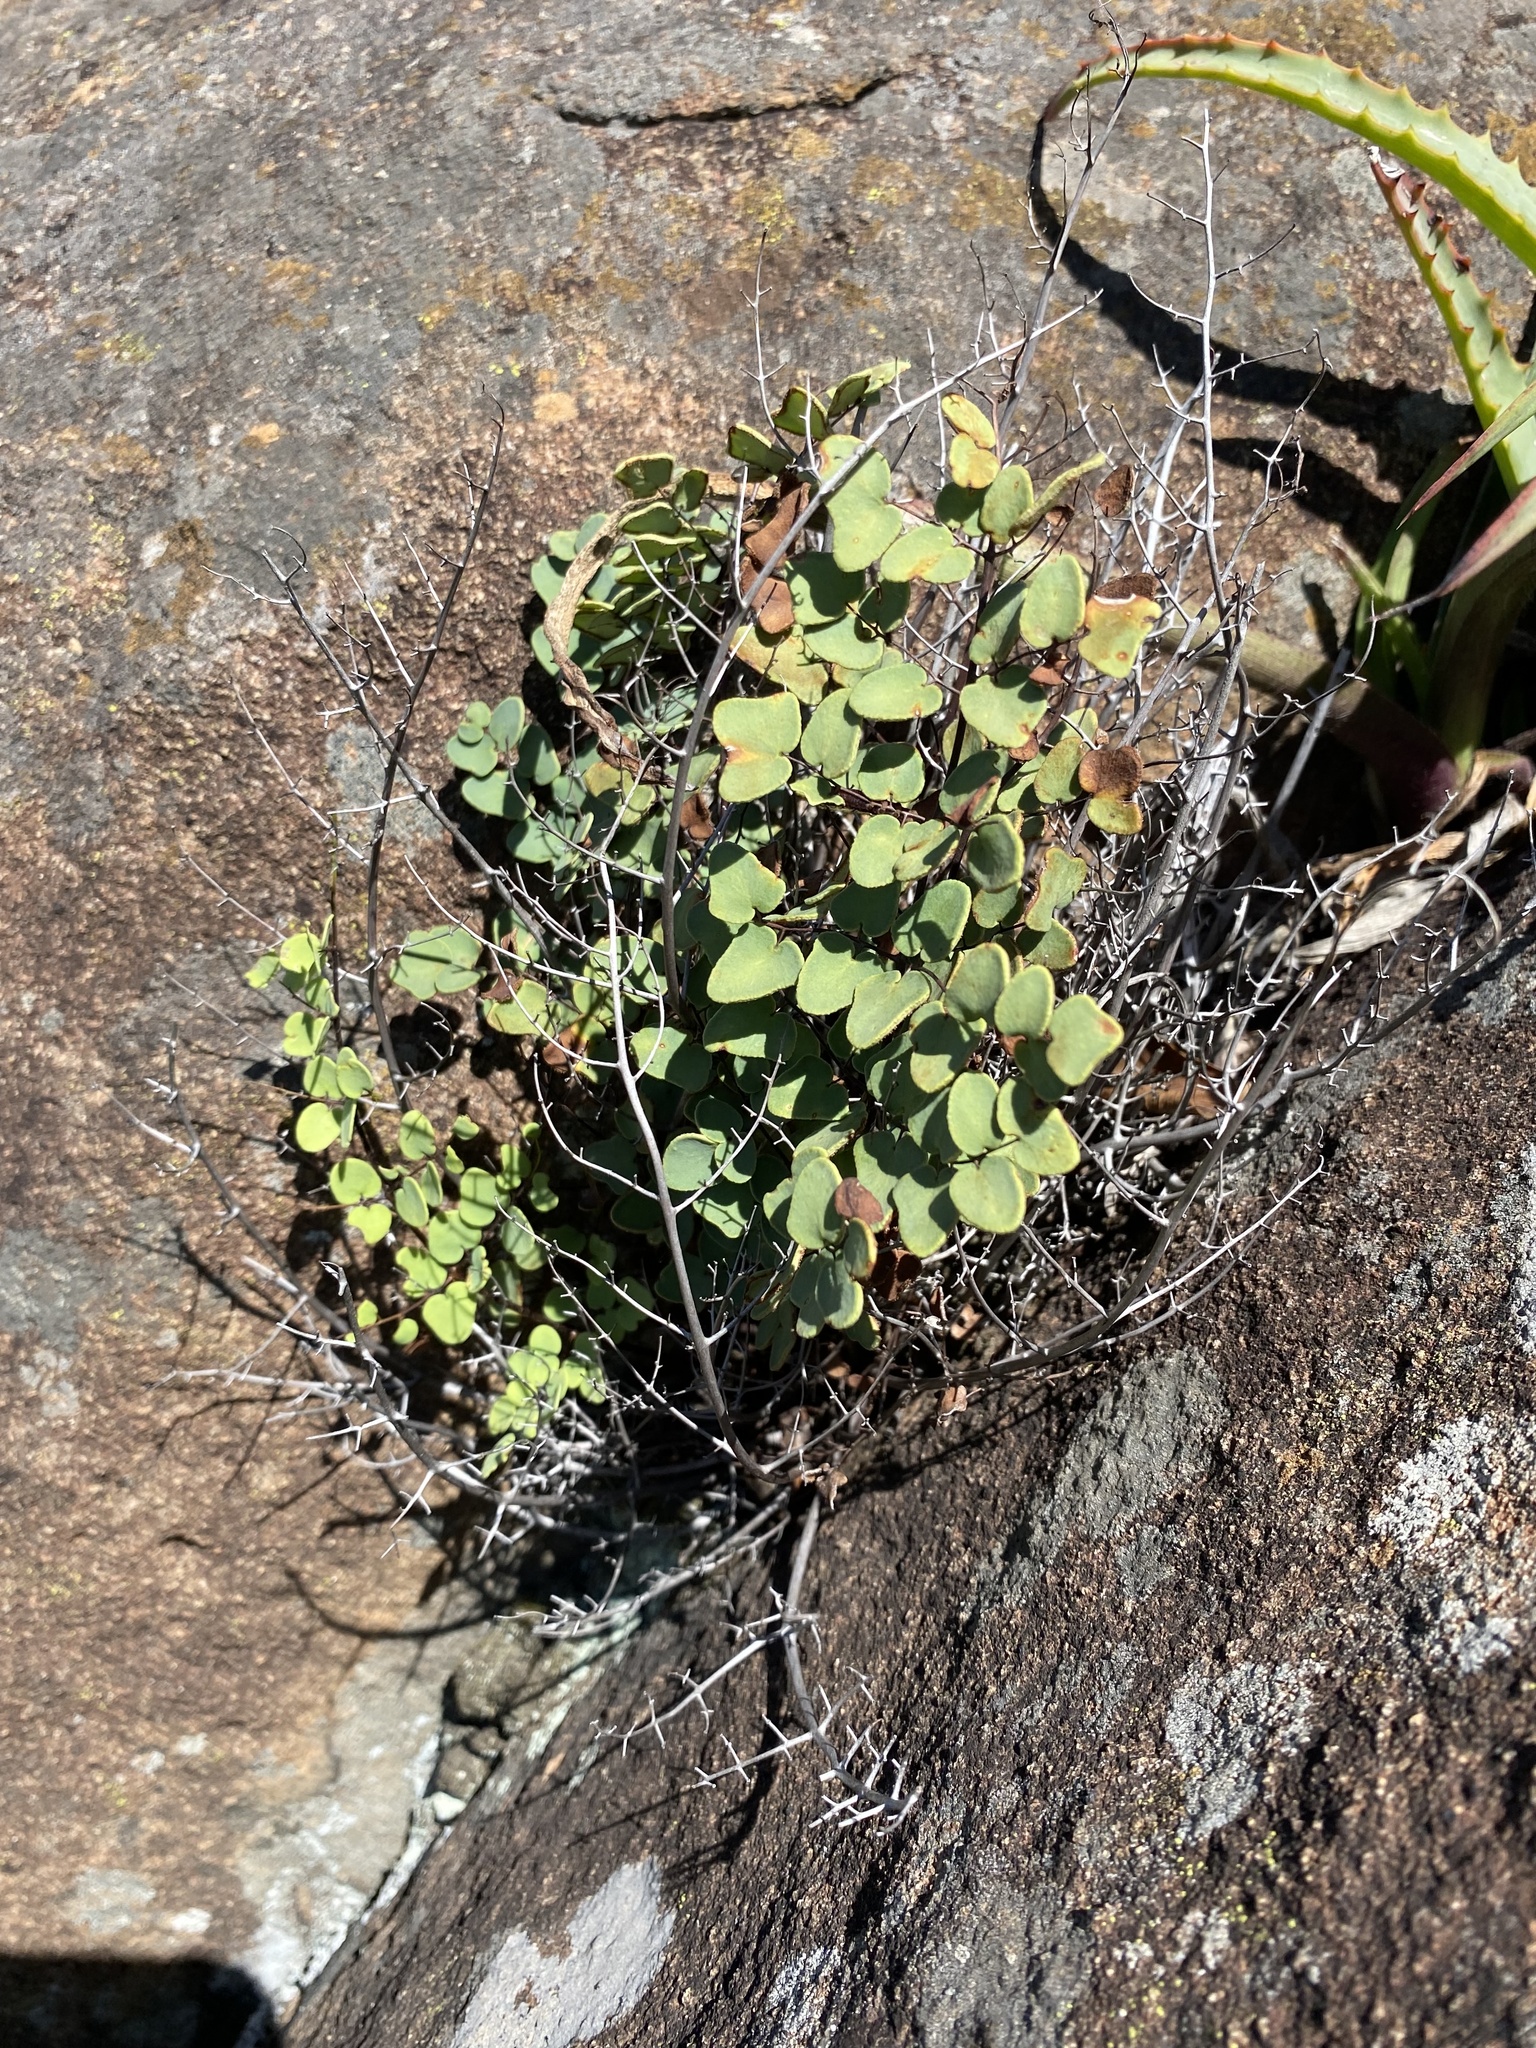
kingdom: Plantae
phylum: Tracheophyta
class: Polypodiopsida
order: Polypodiales
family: Pteridaceae
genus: Pellaea
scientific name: Pellaea calomelanos
